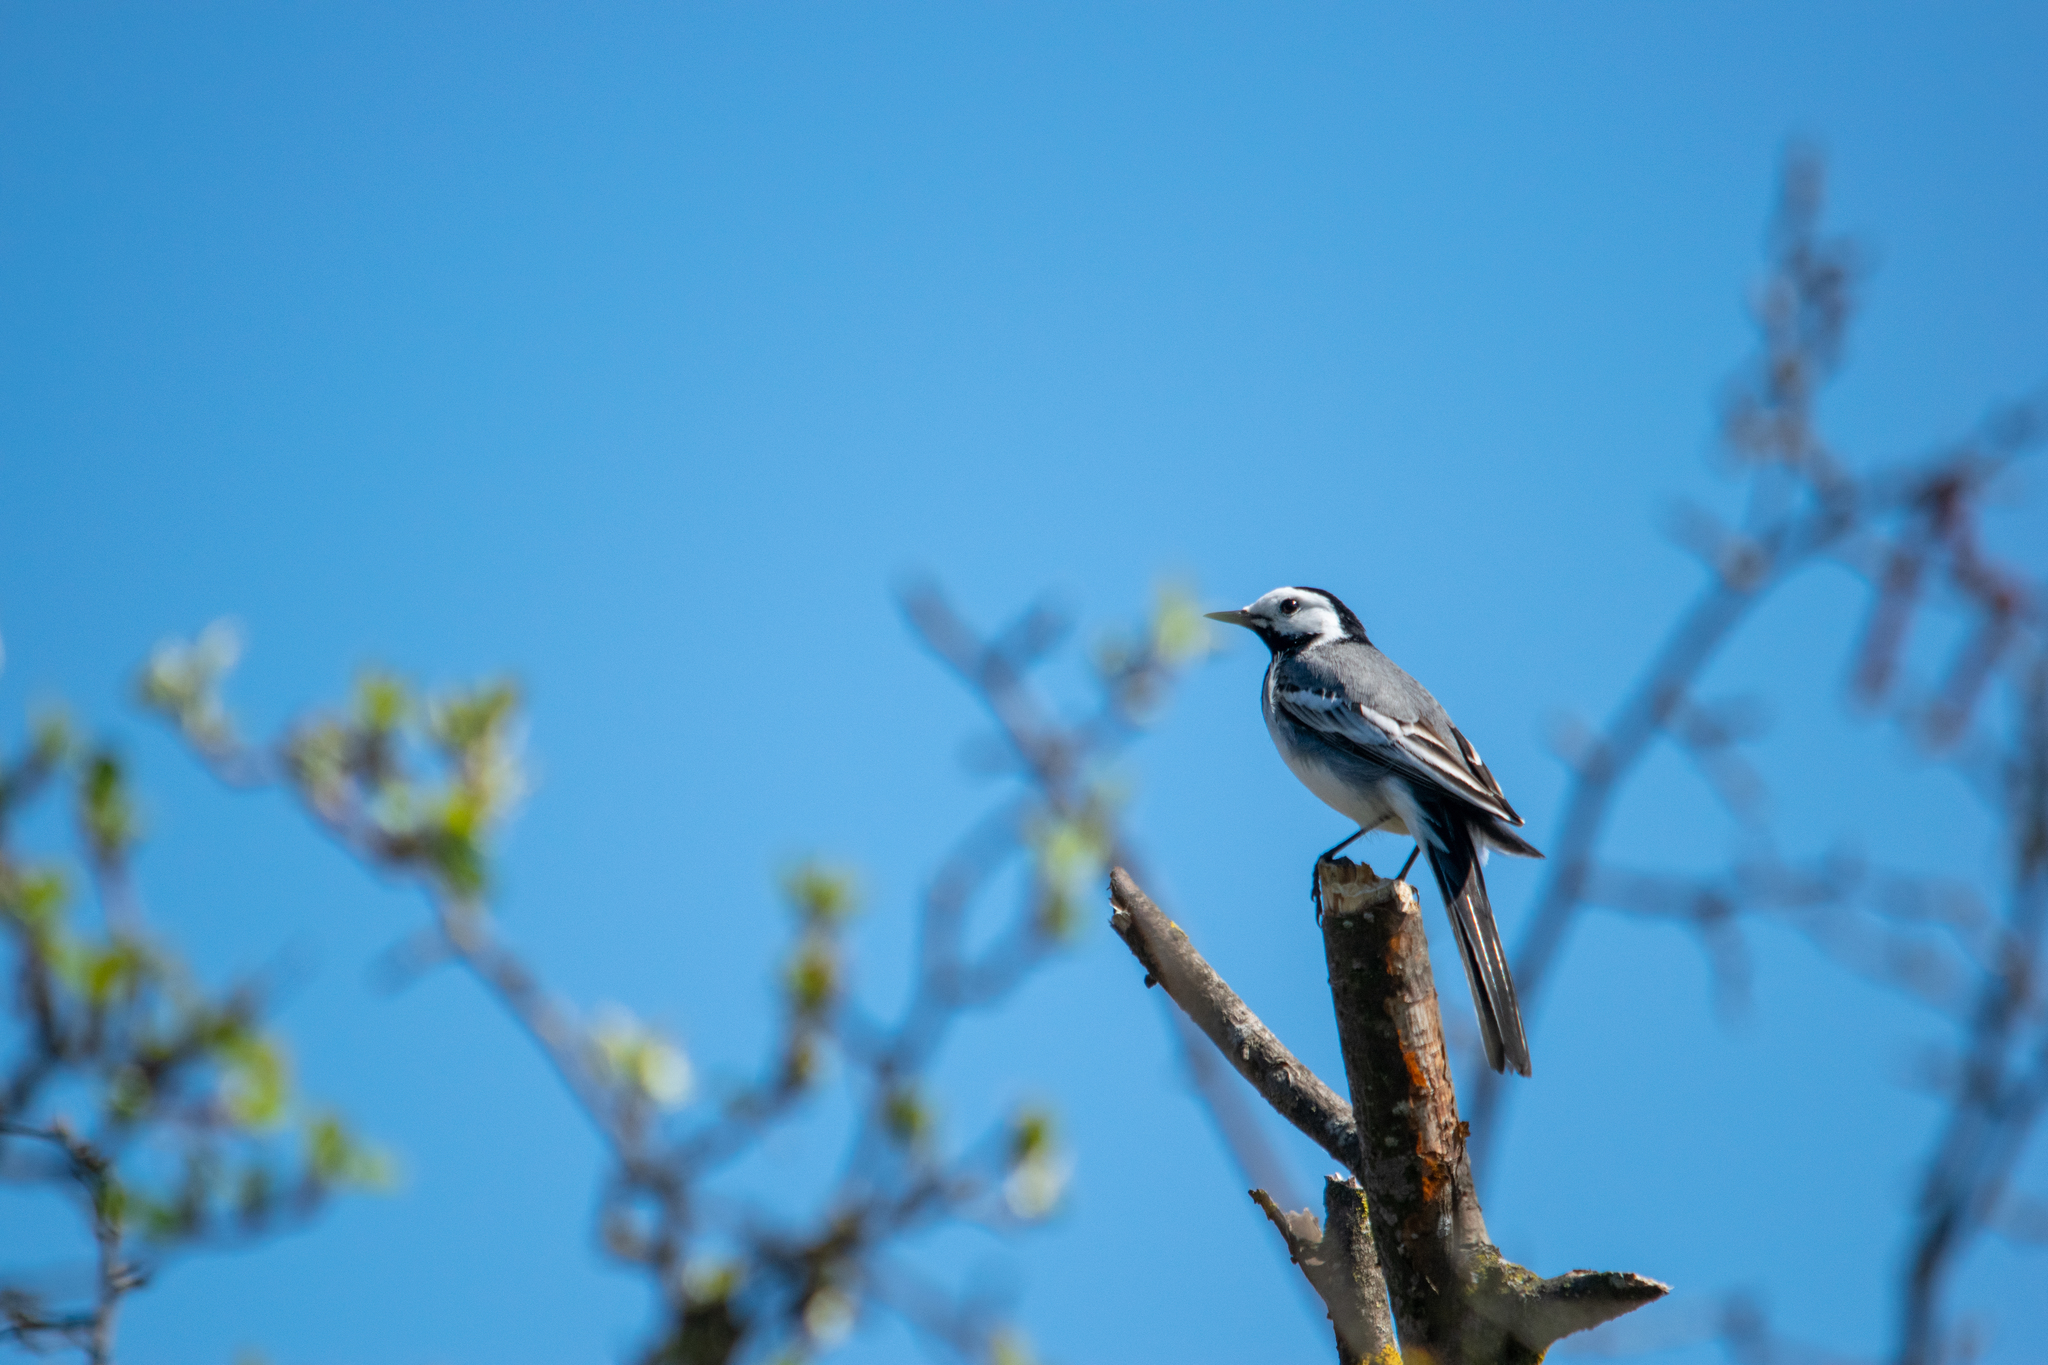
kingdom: Animalia
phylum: Chordata
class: Aves
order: Passeriformes
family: Motacillidae
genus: Motacilla
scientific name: Motacilla alba
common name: White wagtail
